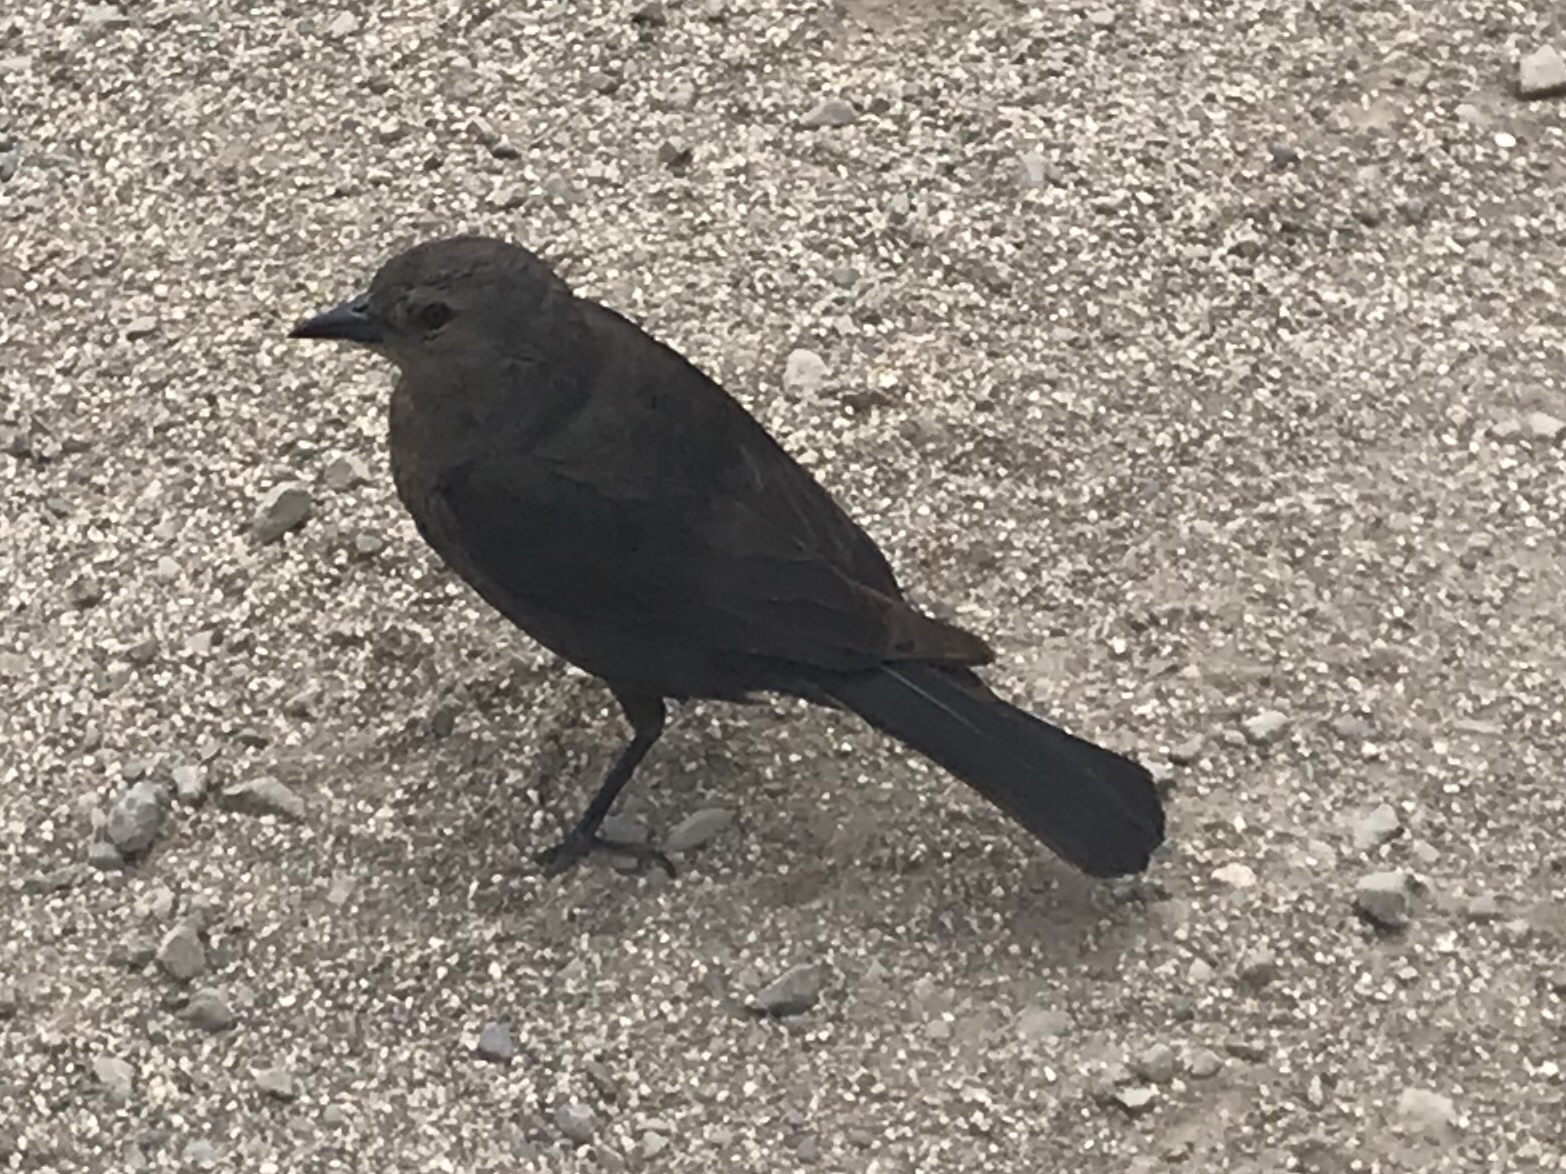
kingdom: Animalia
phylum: Chordata
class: Aves
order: Passeriformes
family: Icteridae
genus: Euphagus
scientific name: Euphagus cyanocephalus
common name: Brewer's blackbird
